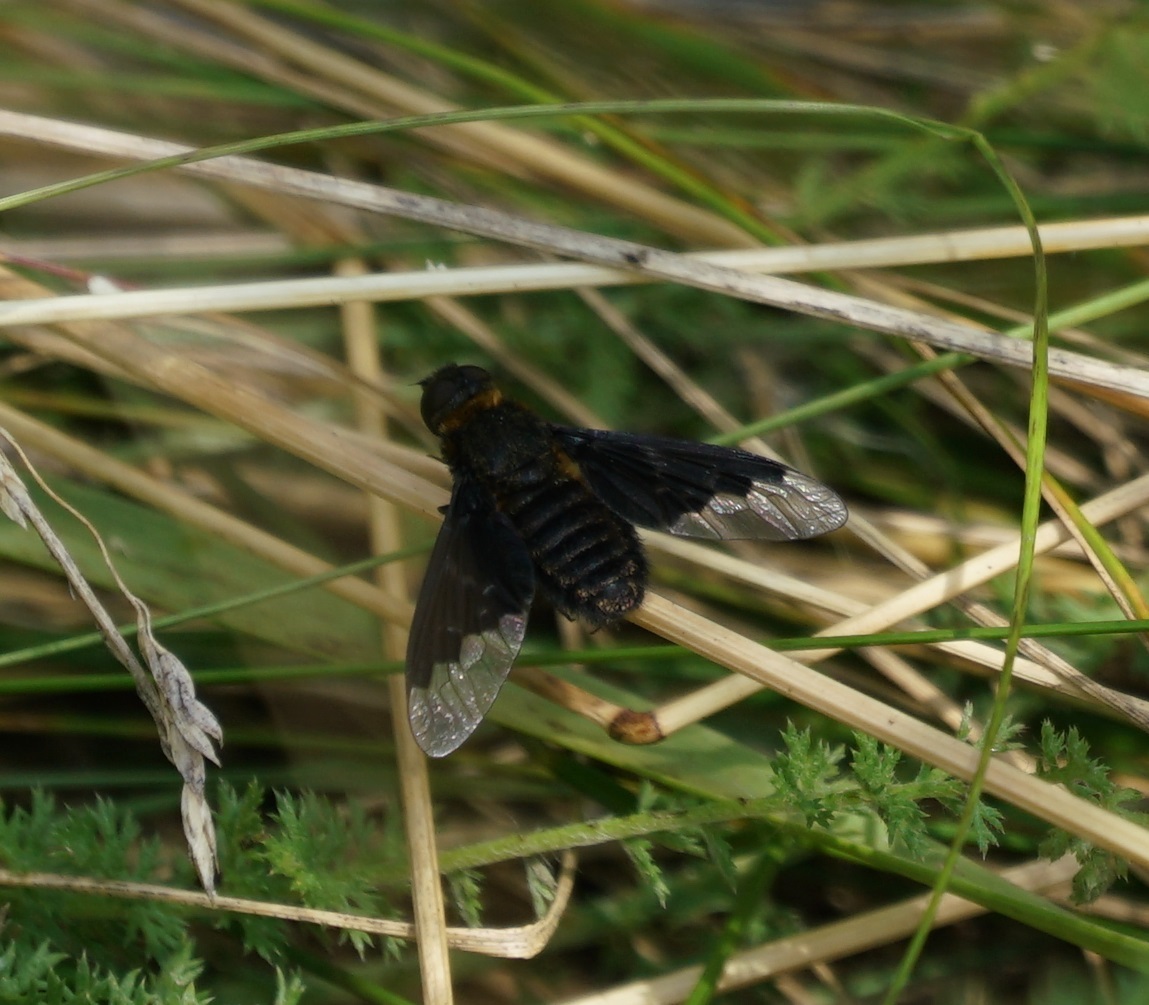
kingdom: Animalia
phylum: Arthropoda
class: Insecta
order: Diptera
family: Bombyliidae
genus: Hemipenthes
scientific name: Hemipenthes morio
